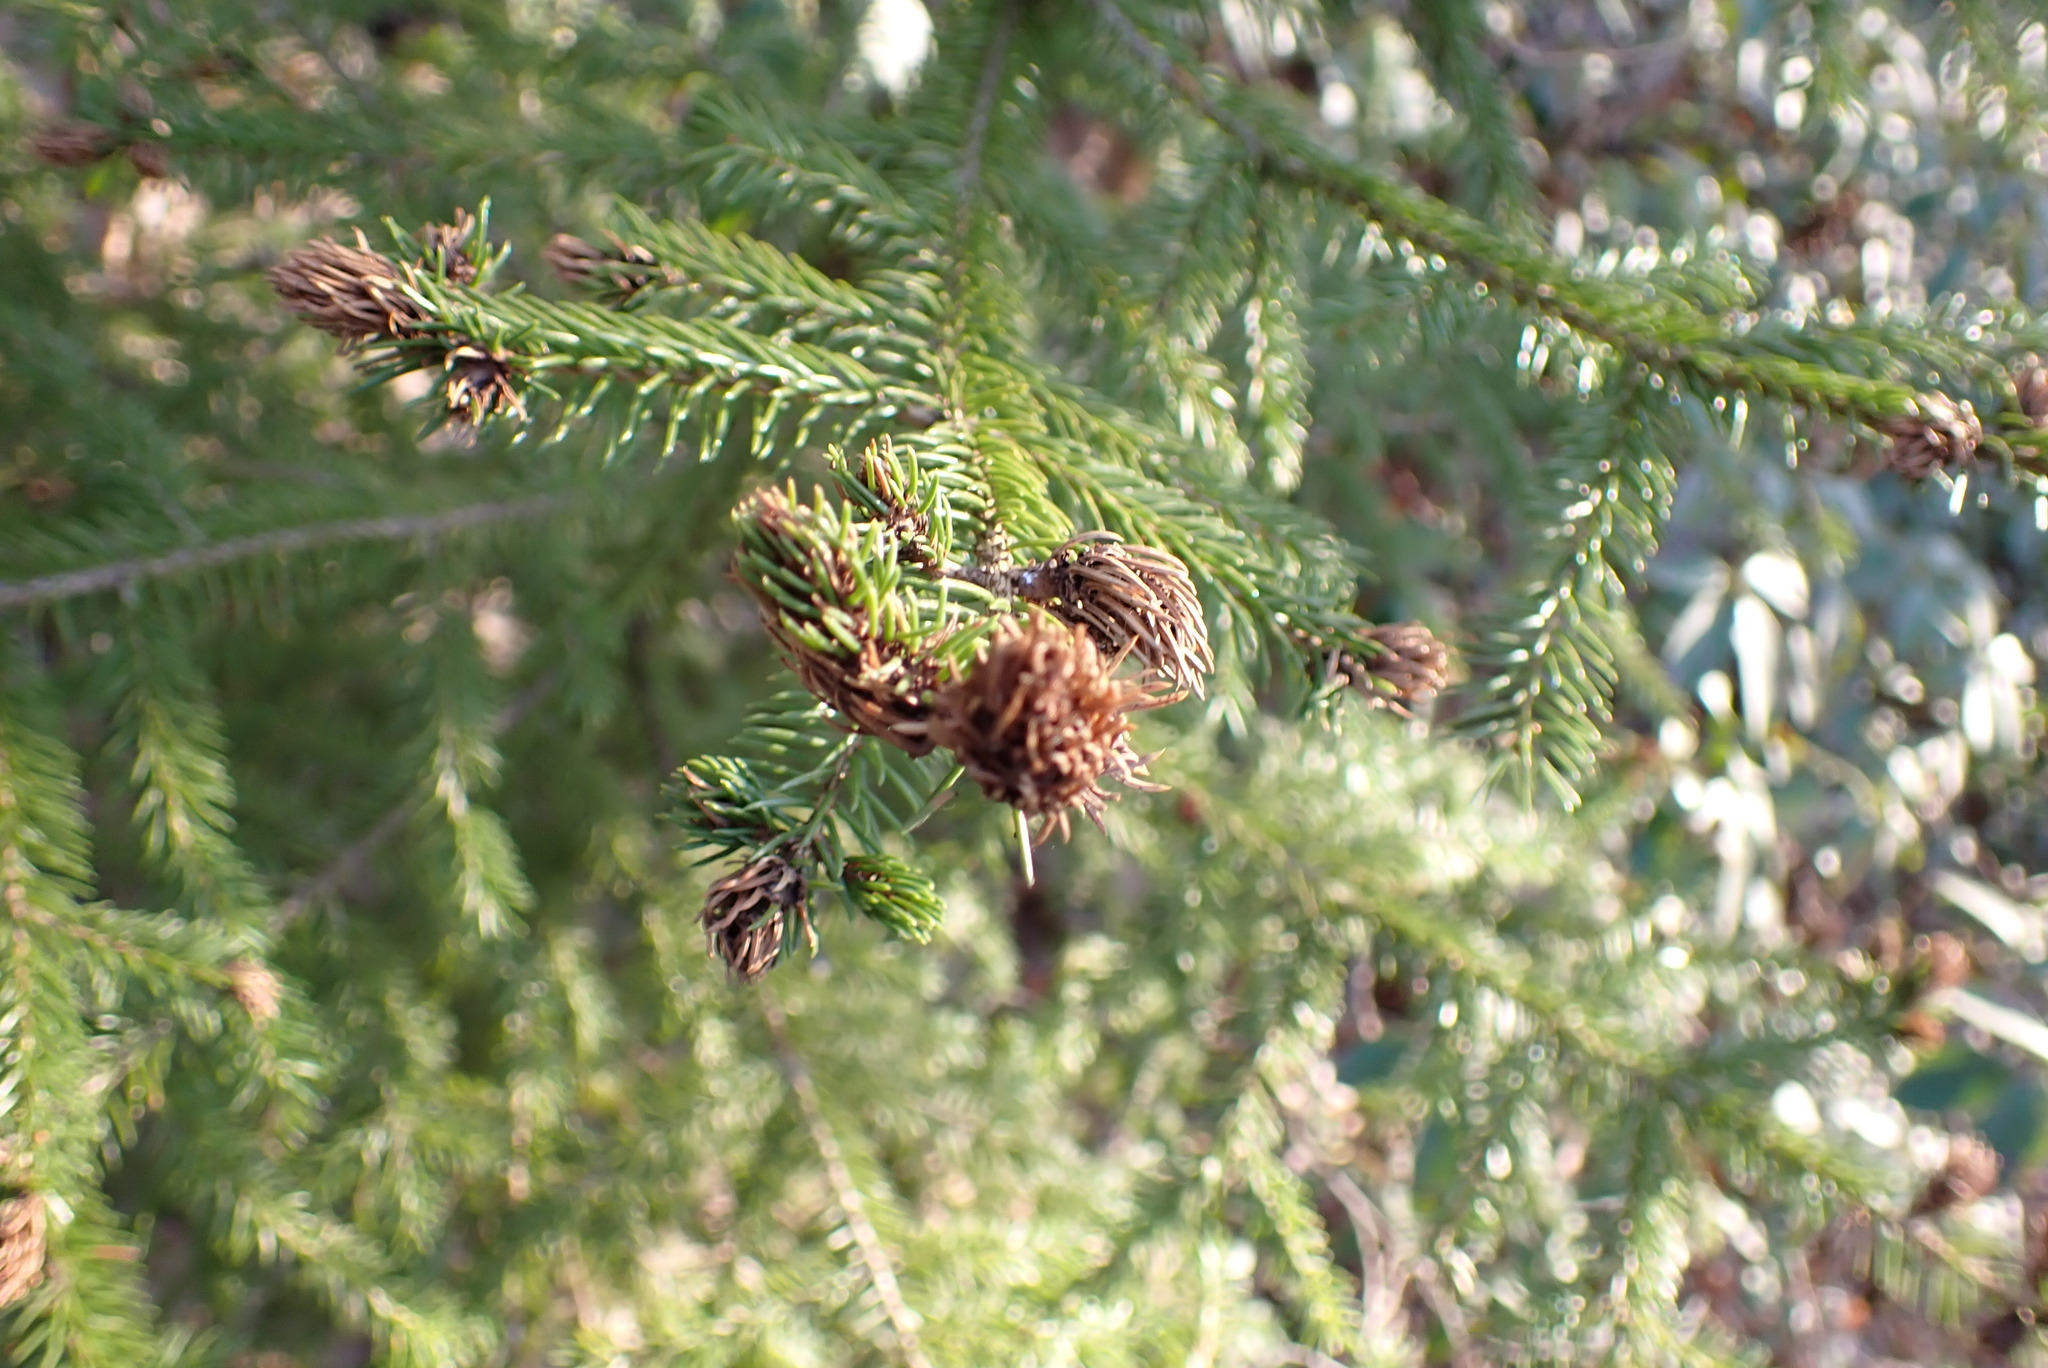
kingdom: Animalia
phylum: Arthropoda
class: Insecta
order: Hemiptera
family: Adelgidae
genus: Adelges
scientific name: Adelges abietis
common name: Eastern spruce gall adelgid
